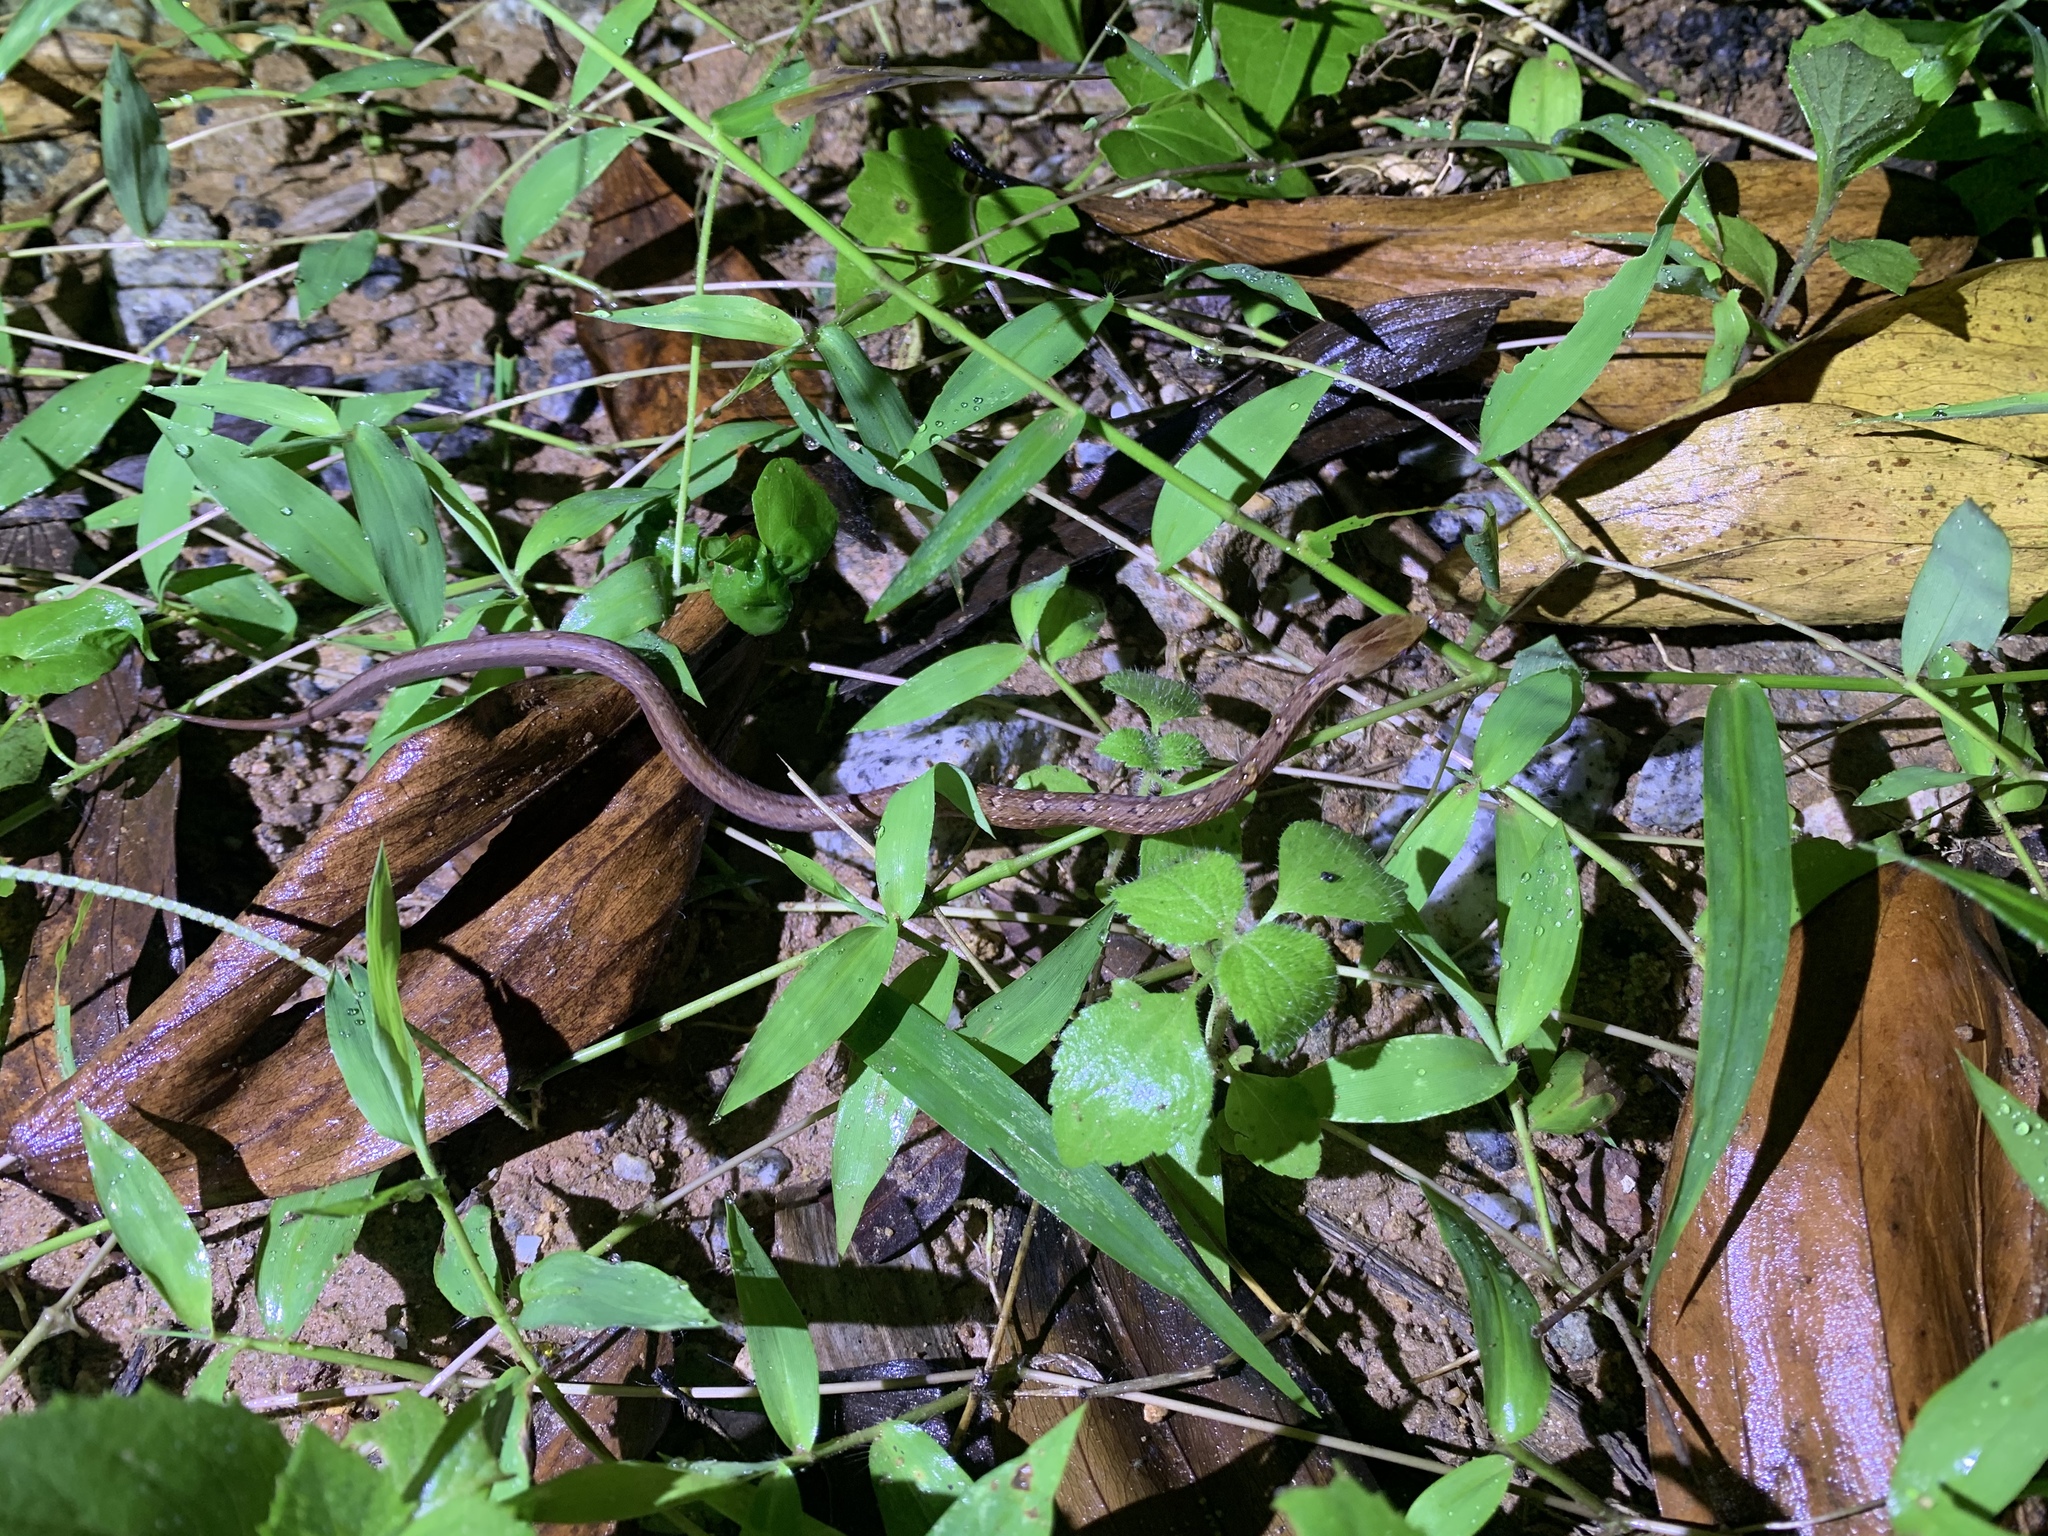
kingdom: Animalia
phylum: Chordata
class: Squamata
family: Pseudaspididae
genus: Psammodynastes
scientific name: Psammodynastes pulverulentus
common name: Common mock viper
